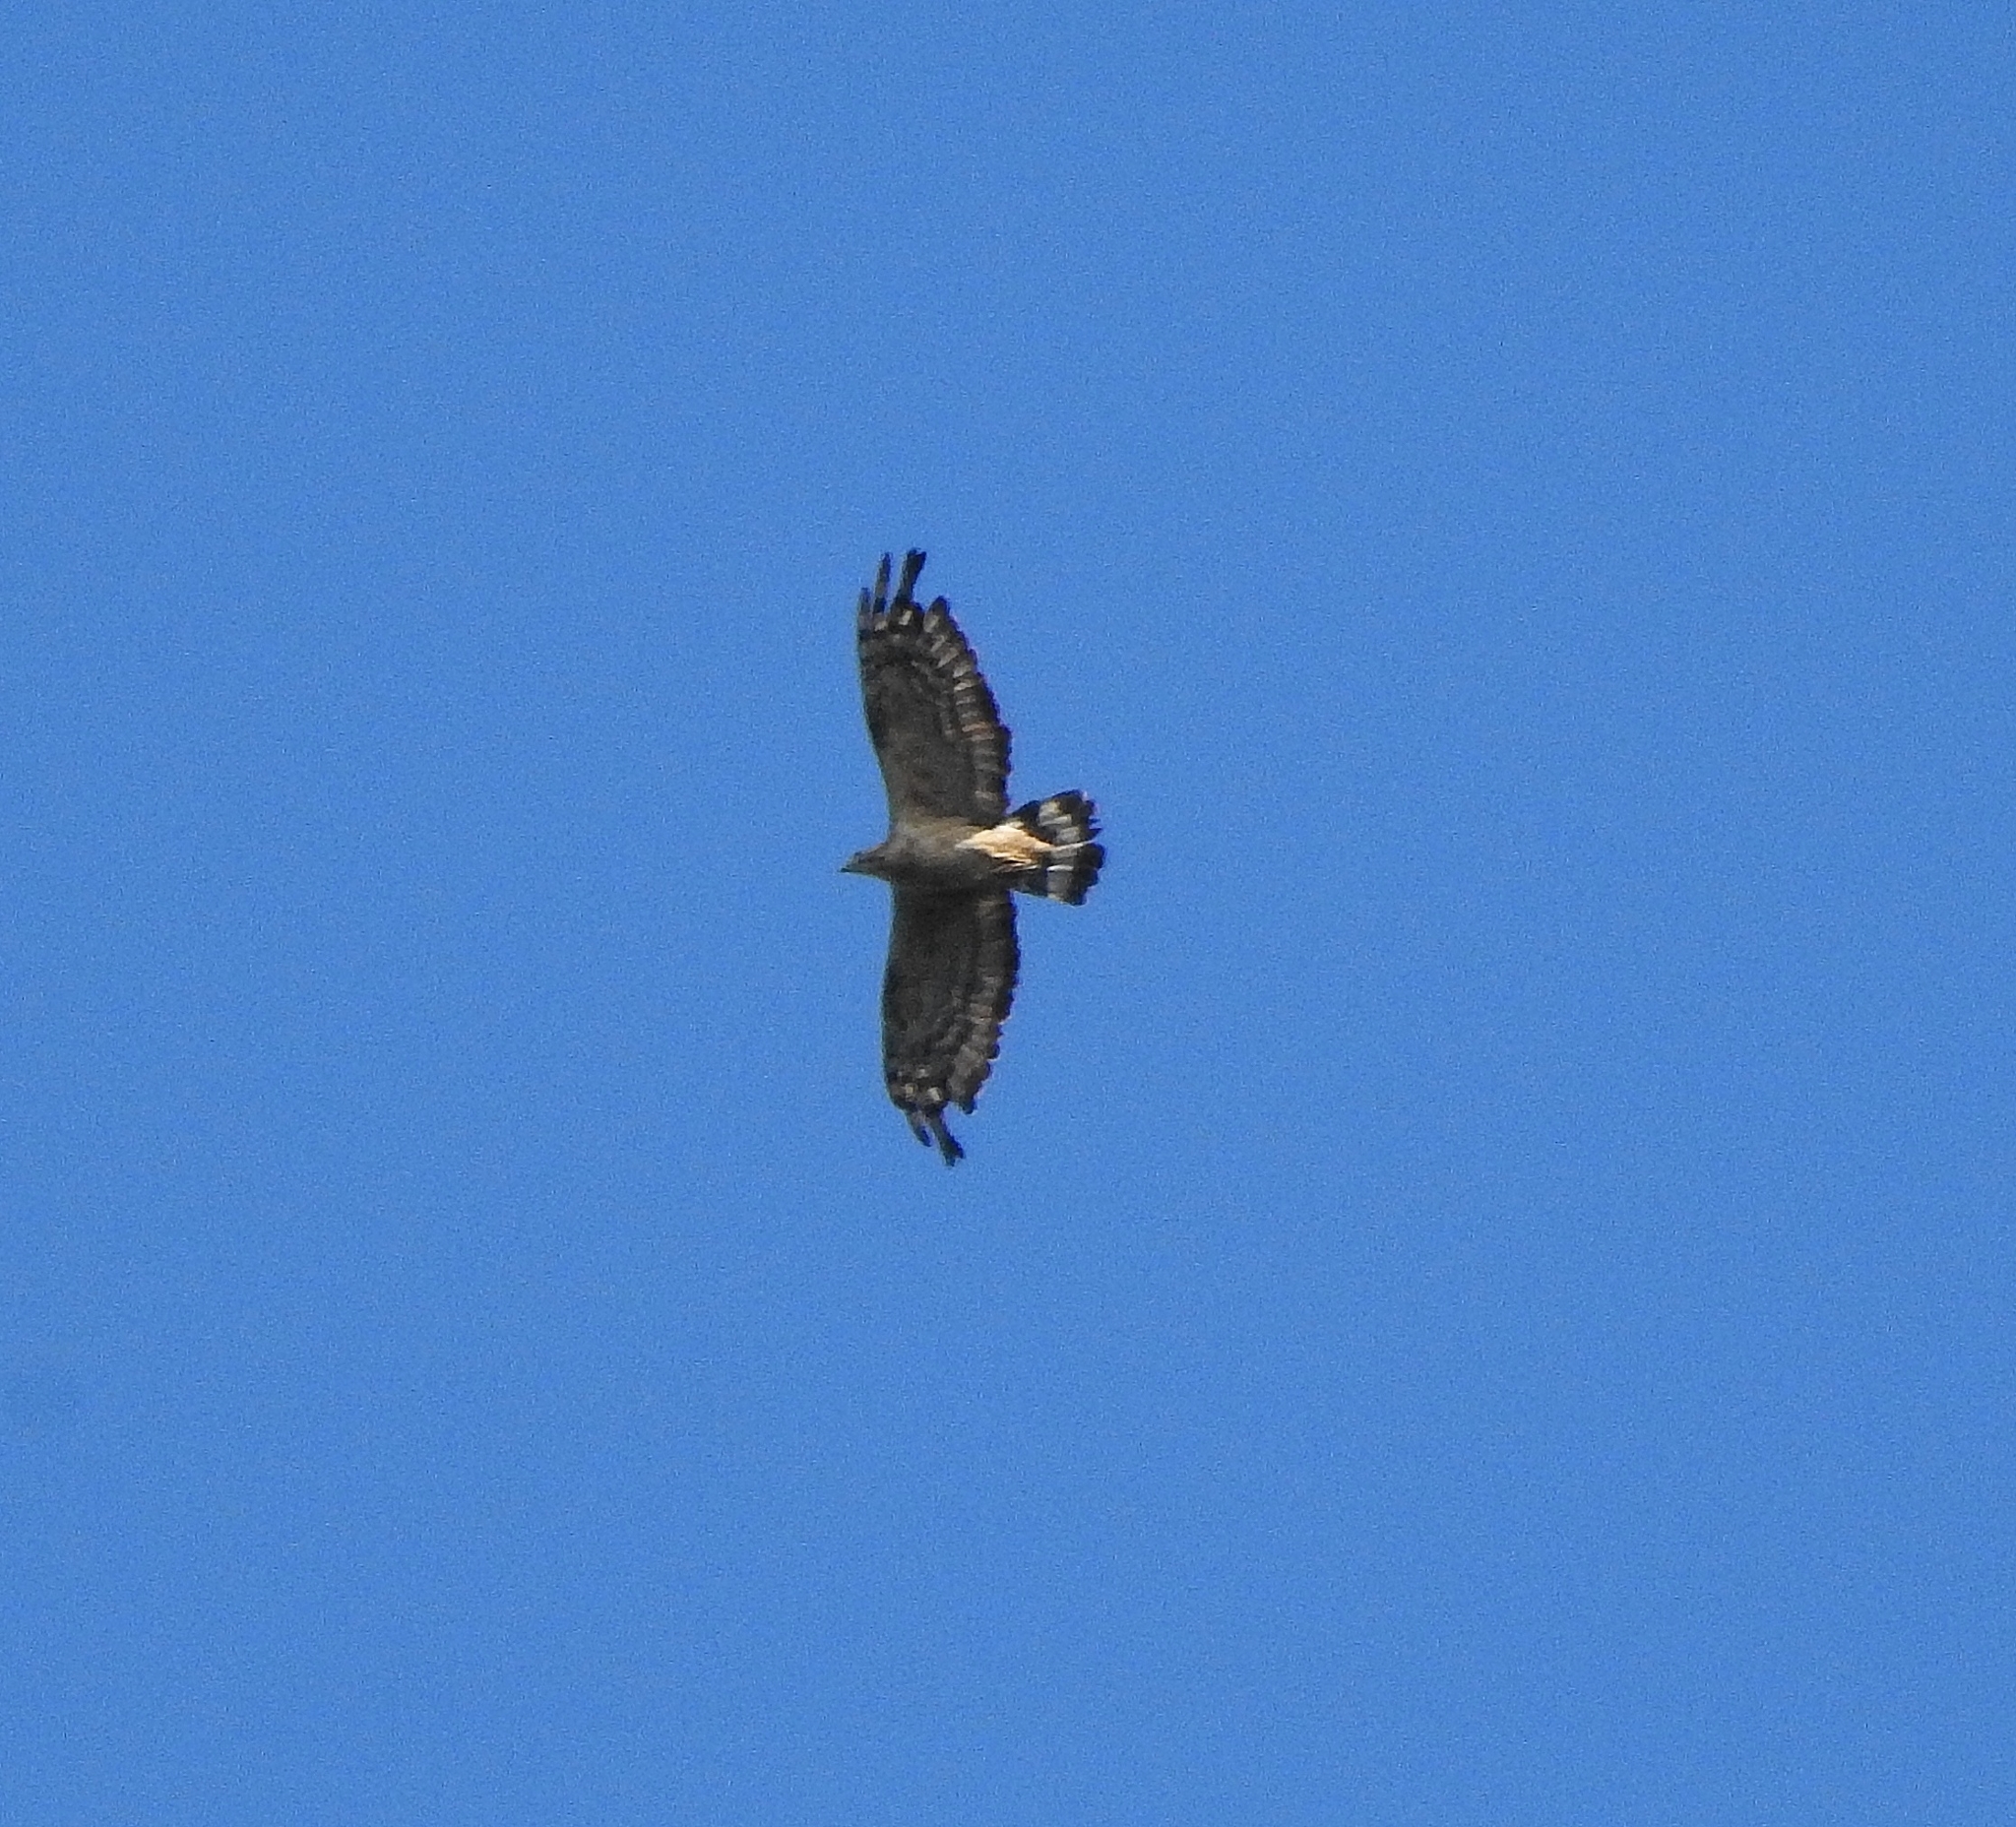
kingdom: Animalia
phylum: Chordata
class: Aves
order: Accipitriformes
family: Accipitridae
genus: Pernis
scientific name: Pernis ptilorhynchus
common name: Crested honey buzzard
